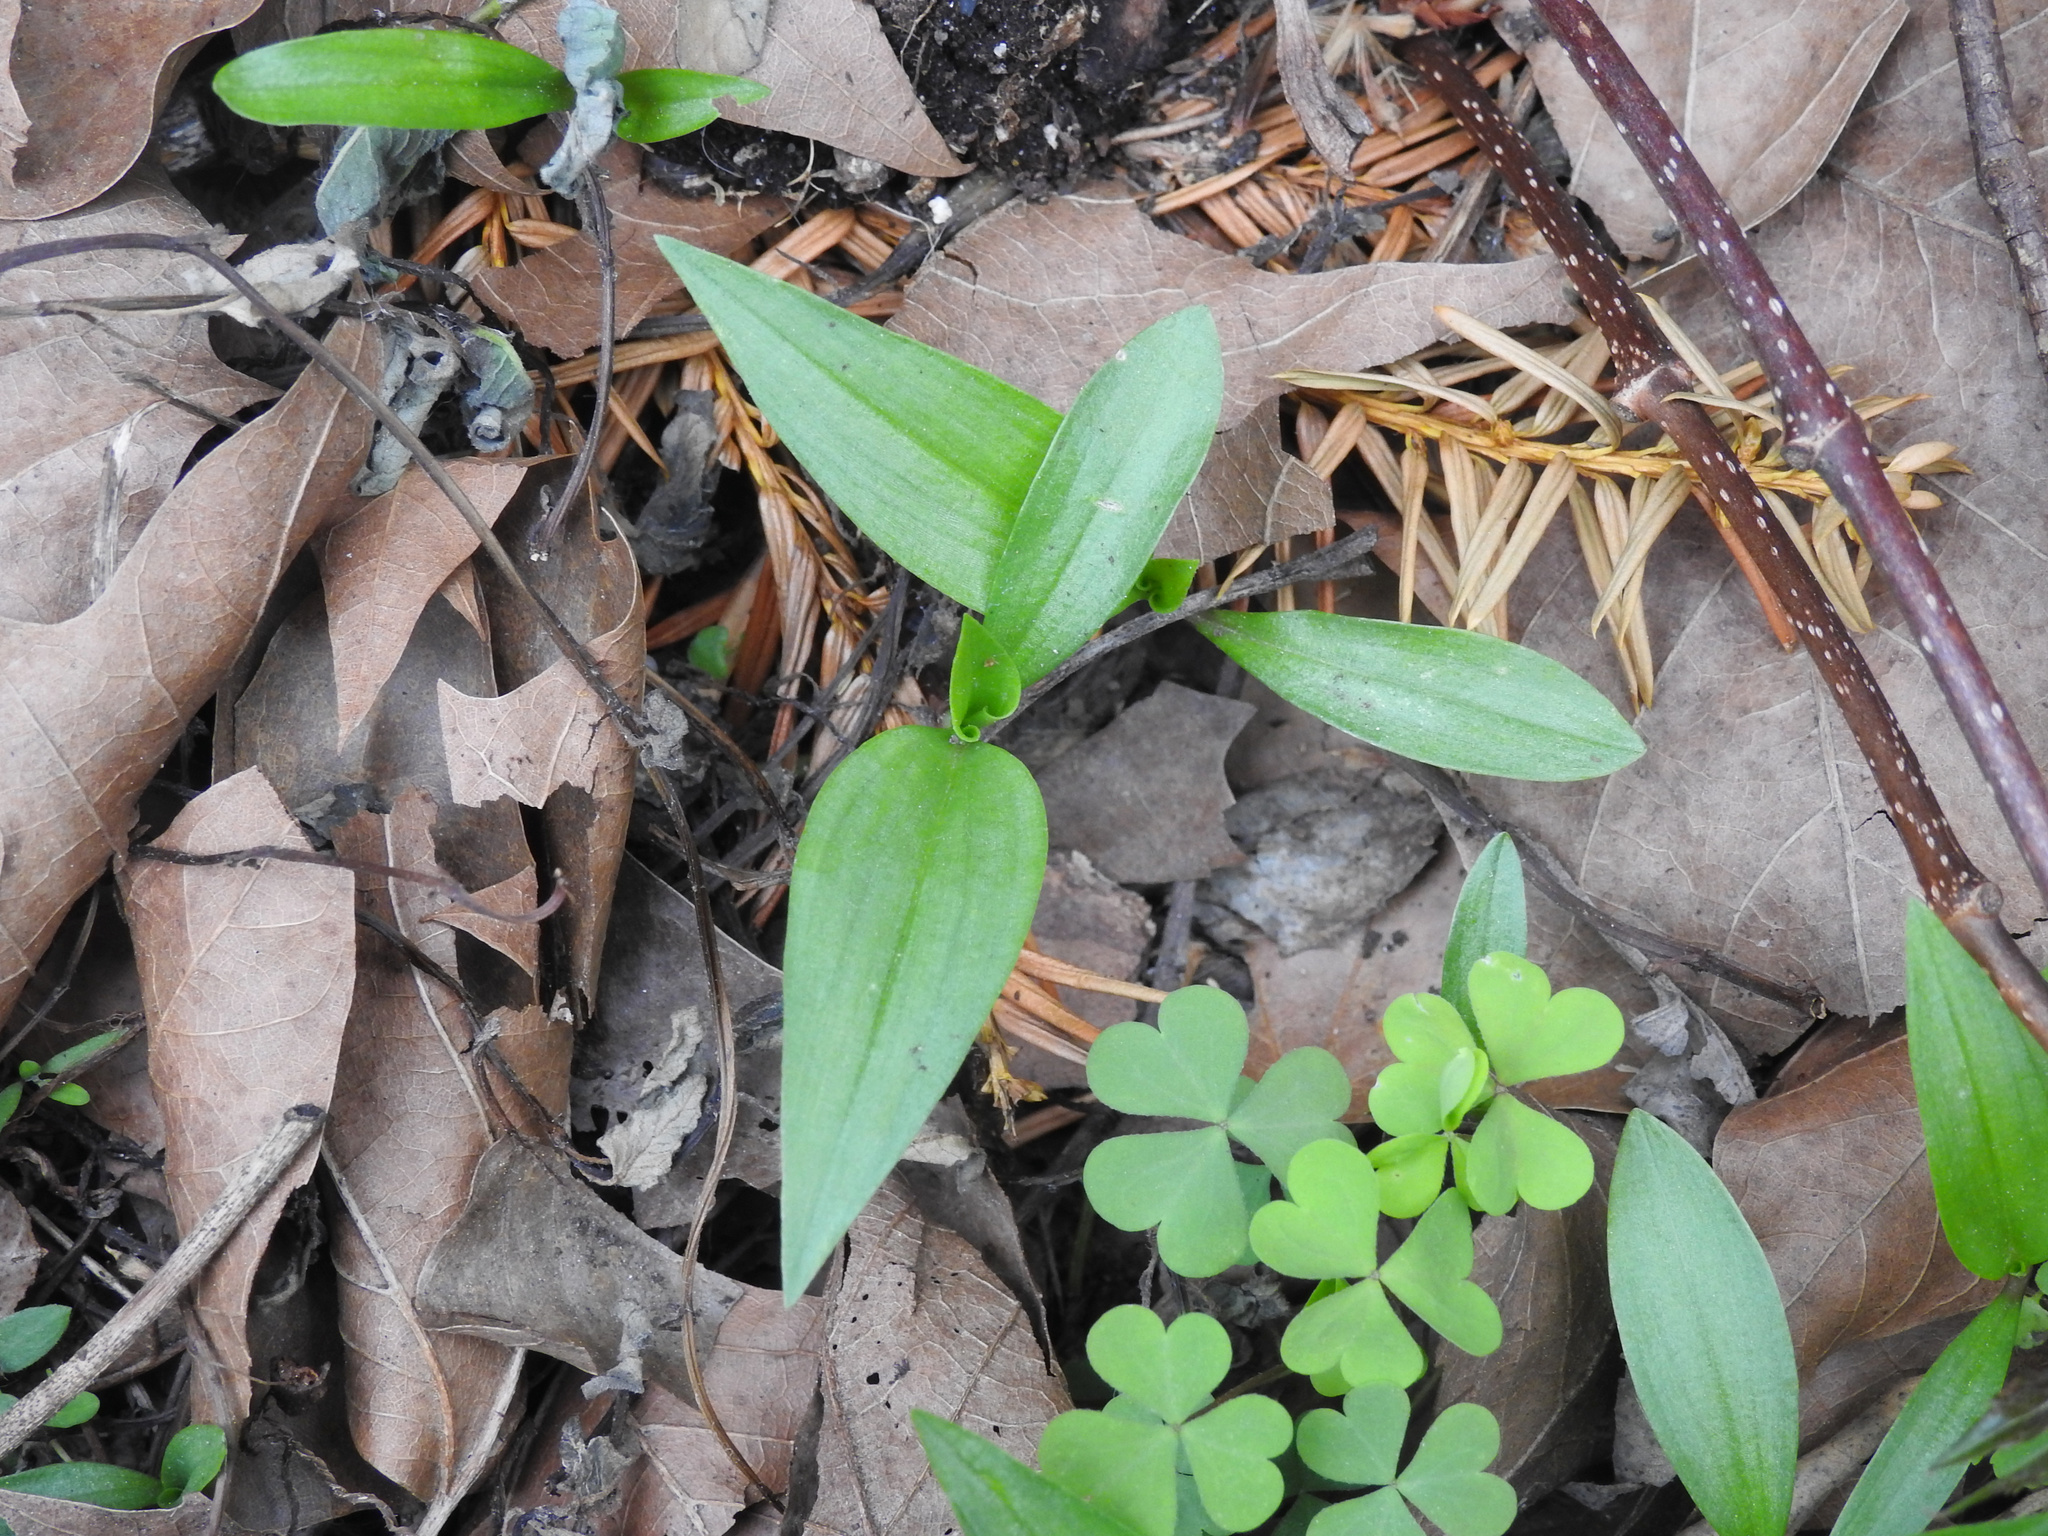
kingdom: Plantae
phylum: Tracheophyta
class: Liliopsida
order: Commelinales
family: Commelinaceae
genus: Commelina
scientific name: Commelina communis
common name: Asiatic dayflower
